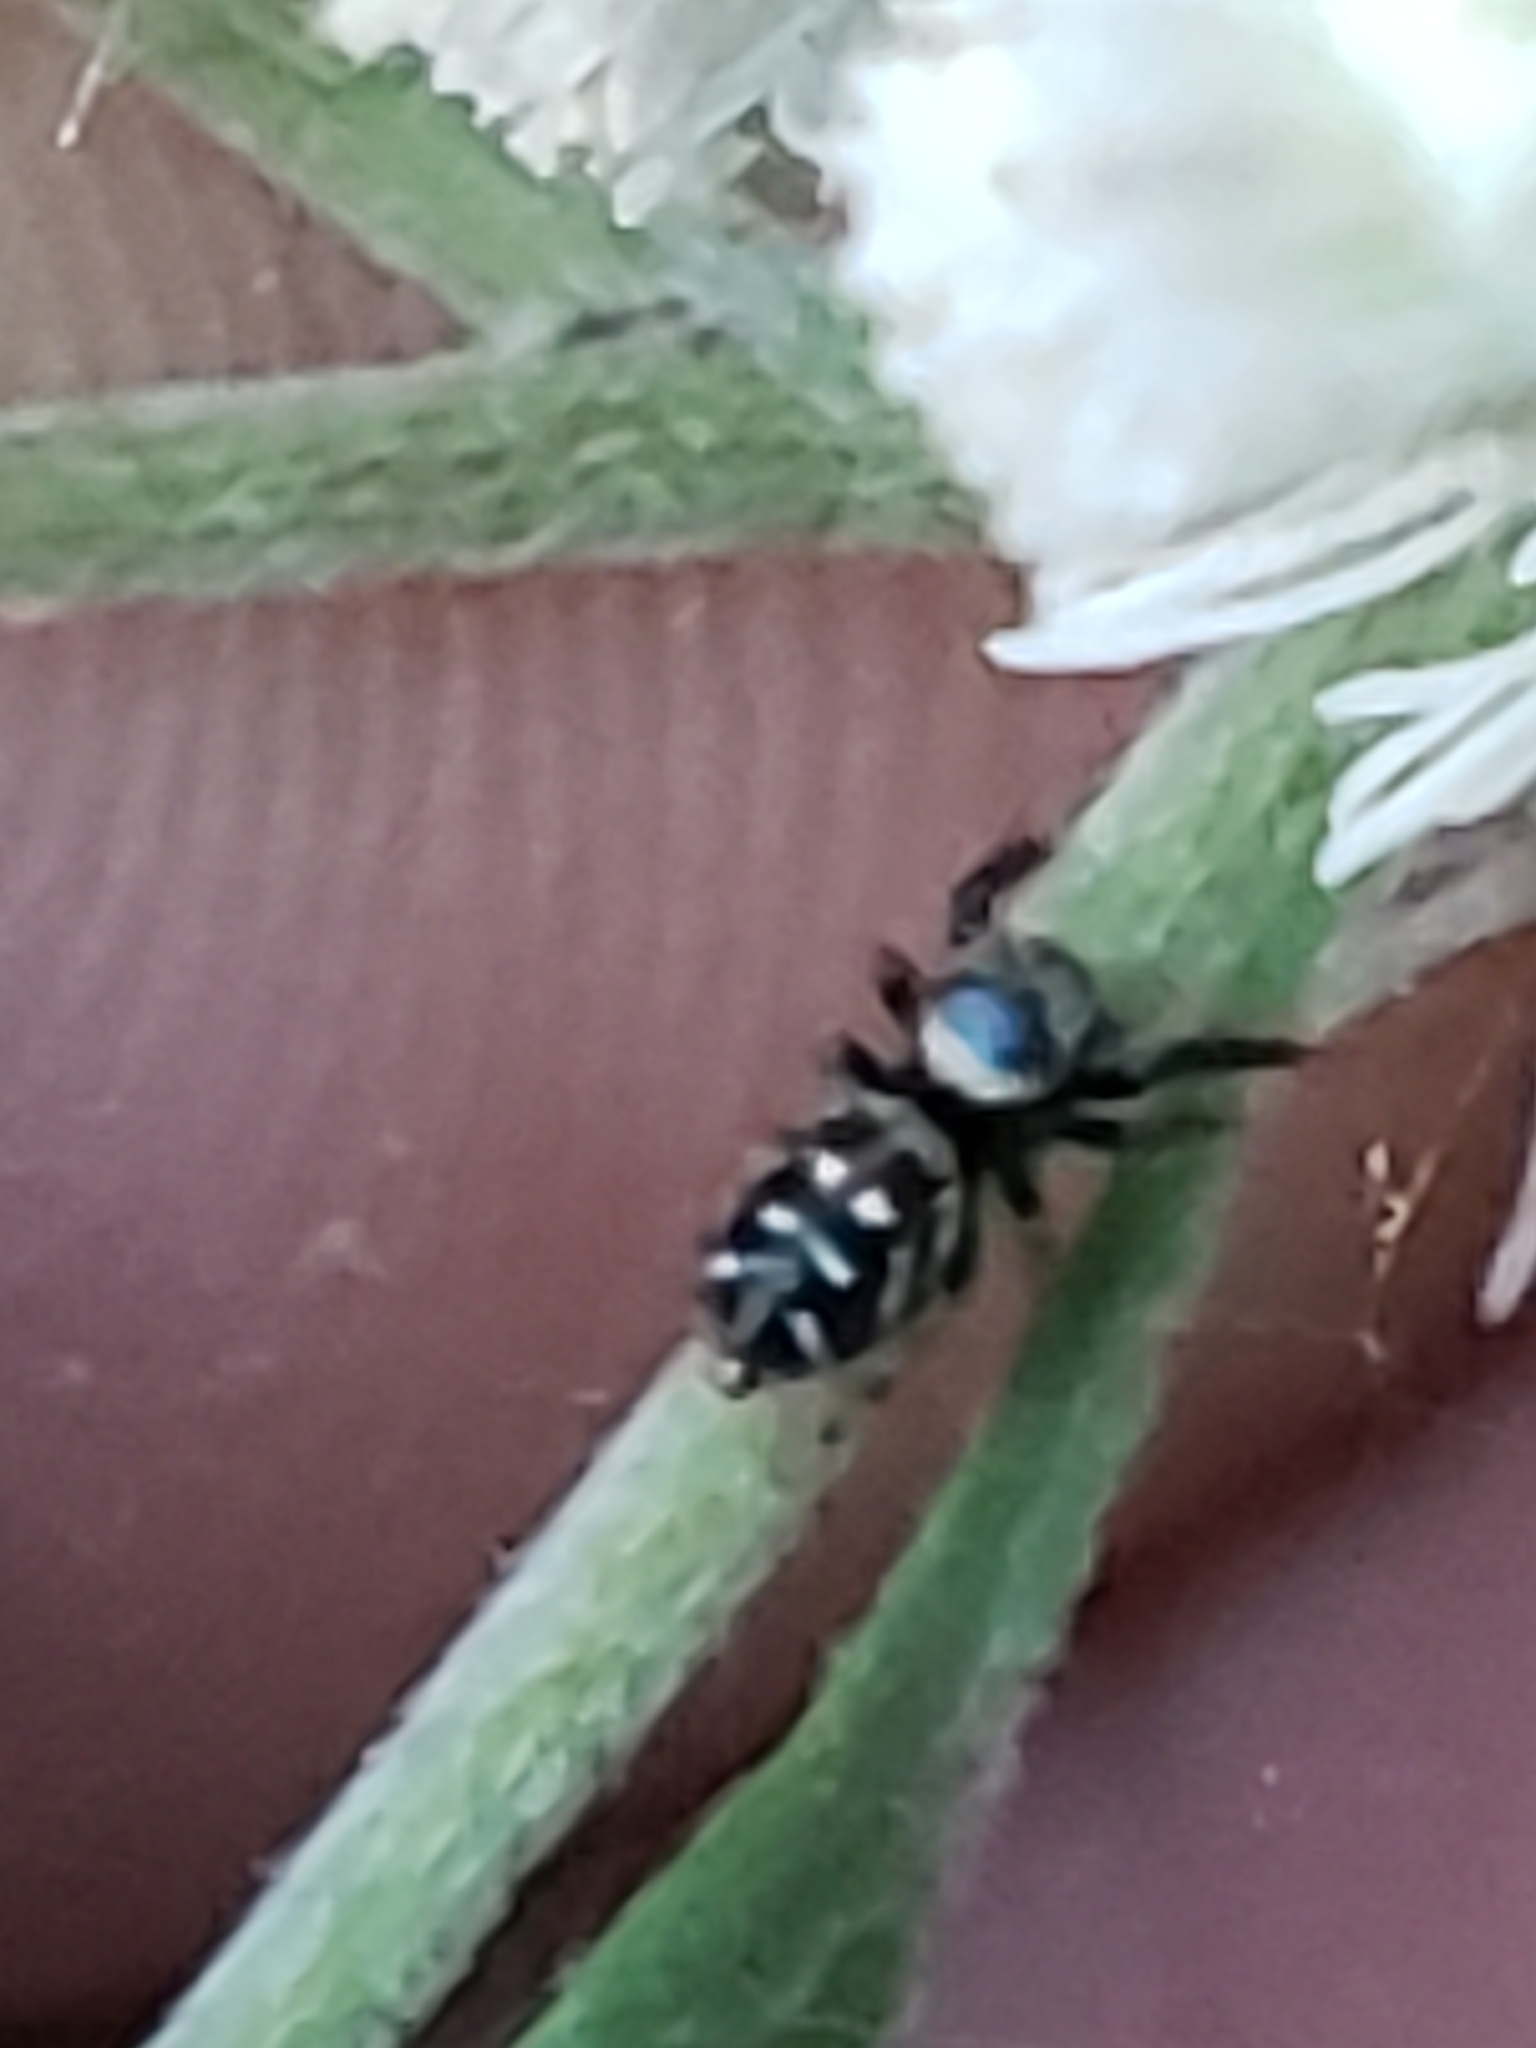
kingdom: Animalia
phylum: Arthropoda
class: Arachnida
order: Araneae
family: Salticidae
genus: Paraphidippus
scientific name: Paraphidippus aurantius
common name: Jumping spiders
